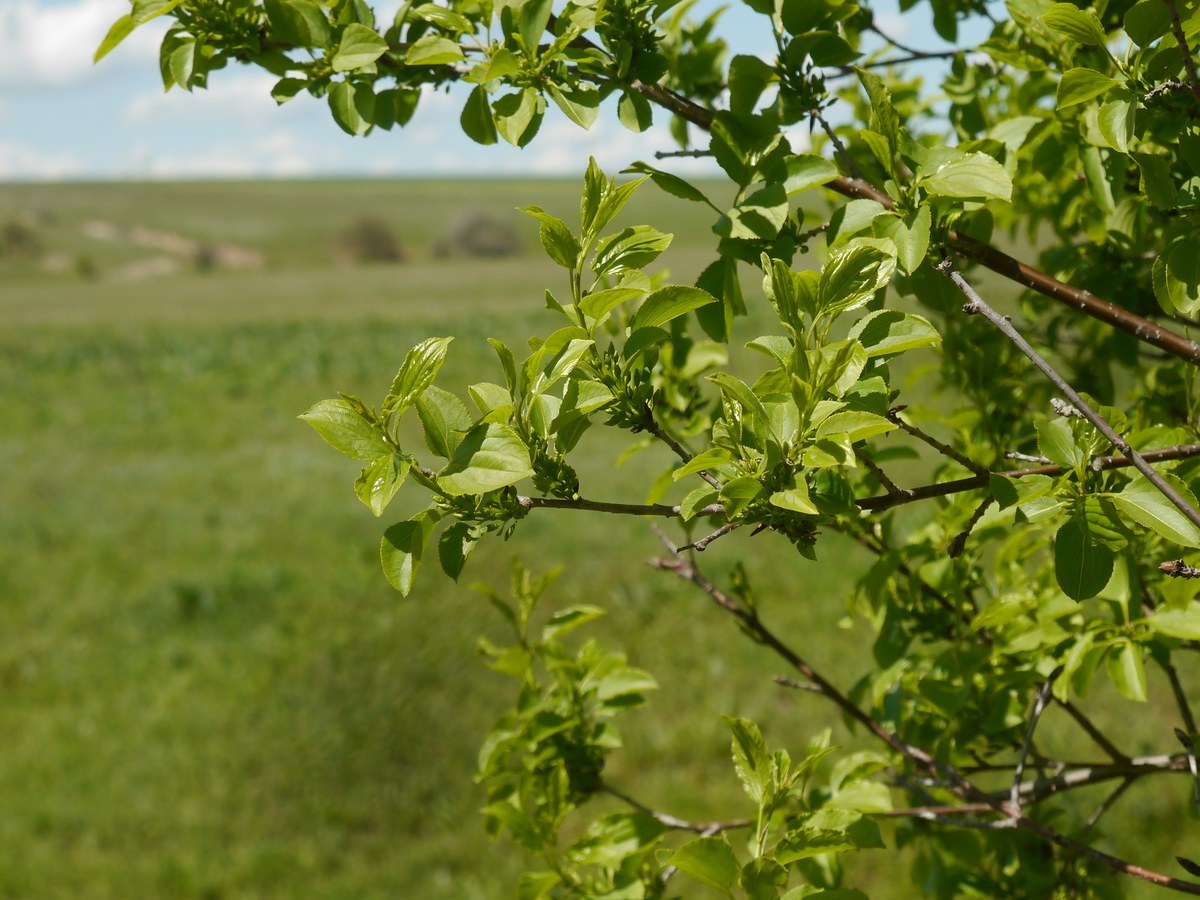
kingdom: Plantae
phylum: Tracheophyta
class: Magnoliopsida
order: Rosales
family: Rhamnaceae
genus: Rhamnus
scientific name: Rhamnus cathartica
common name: Common buckthorn
